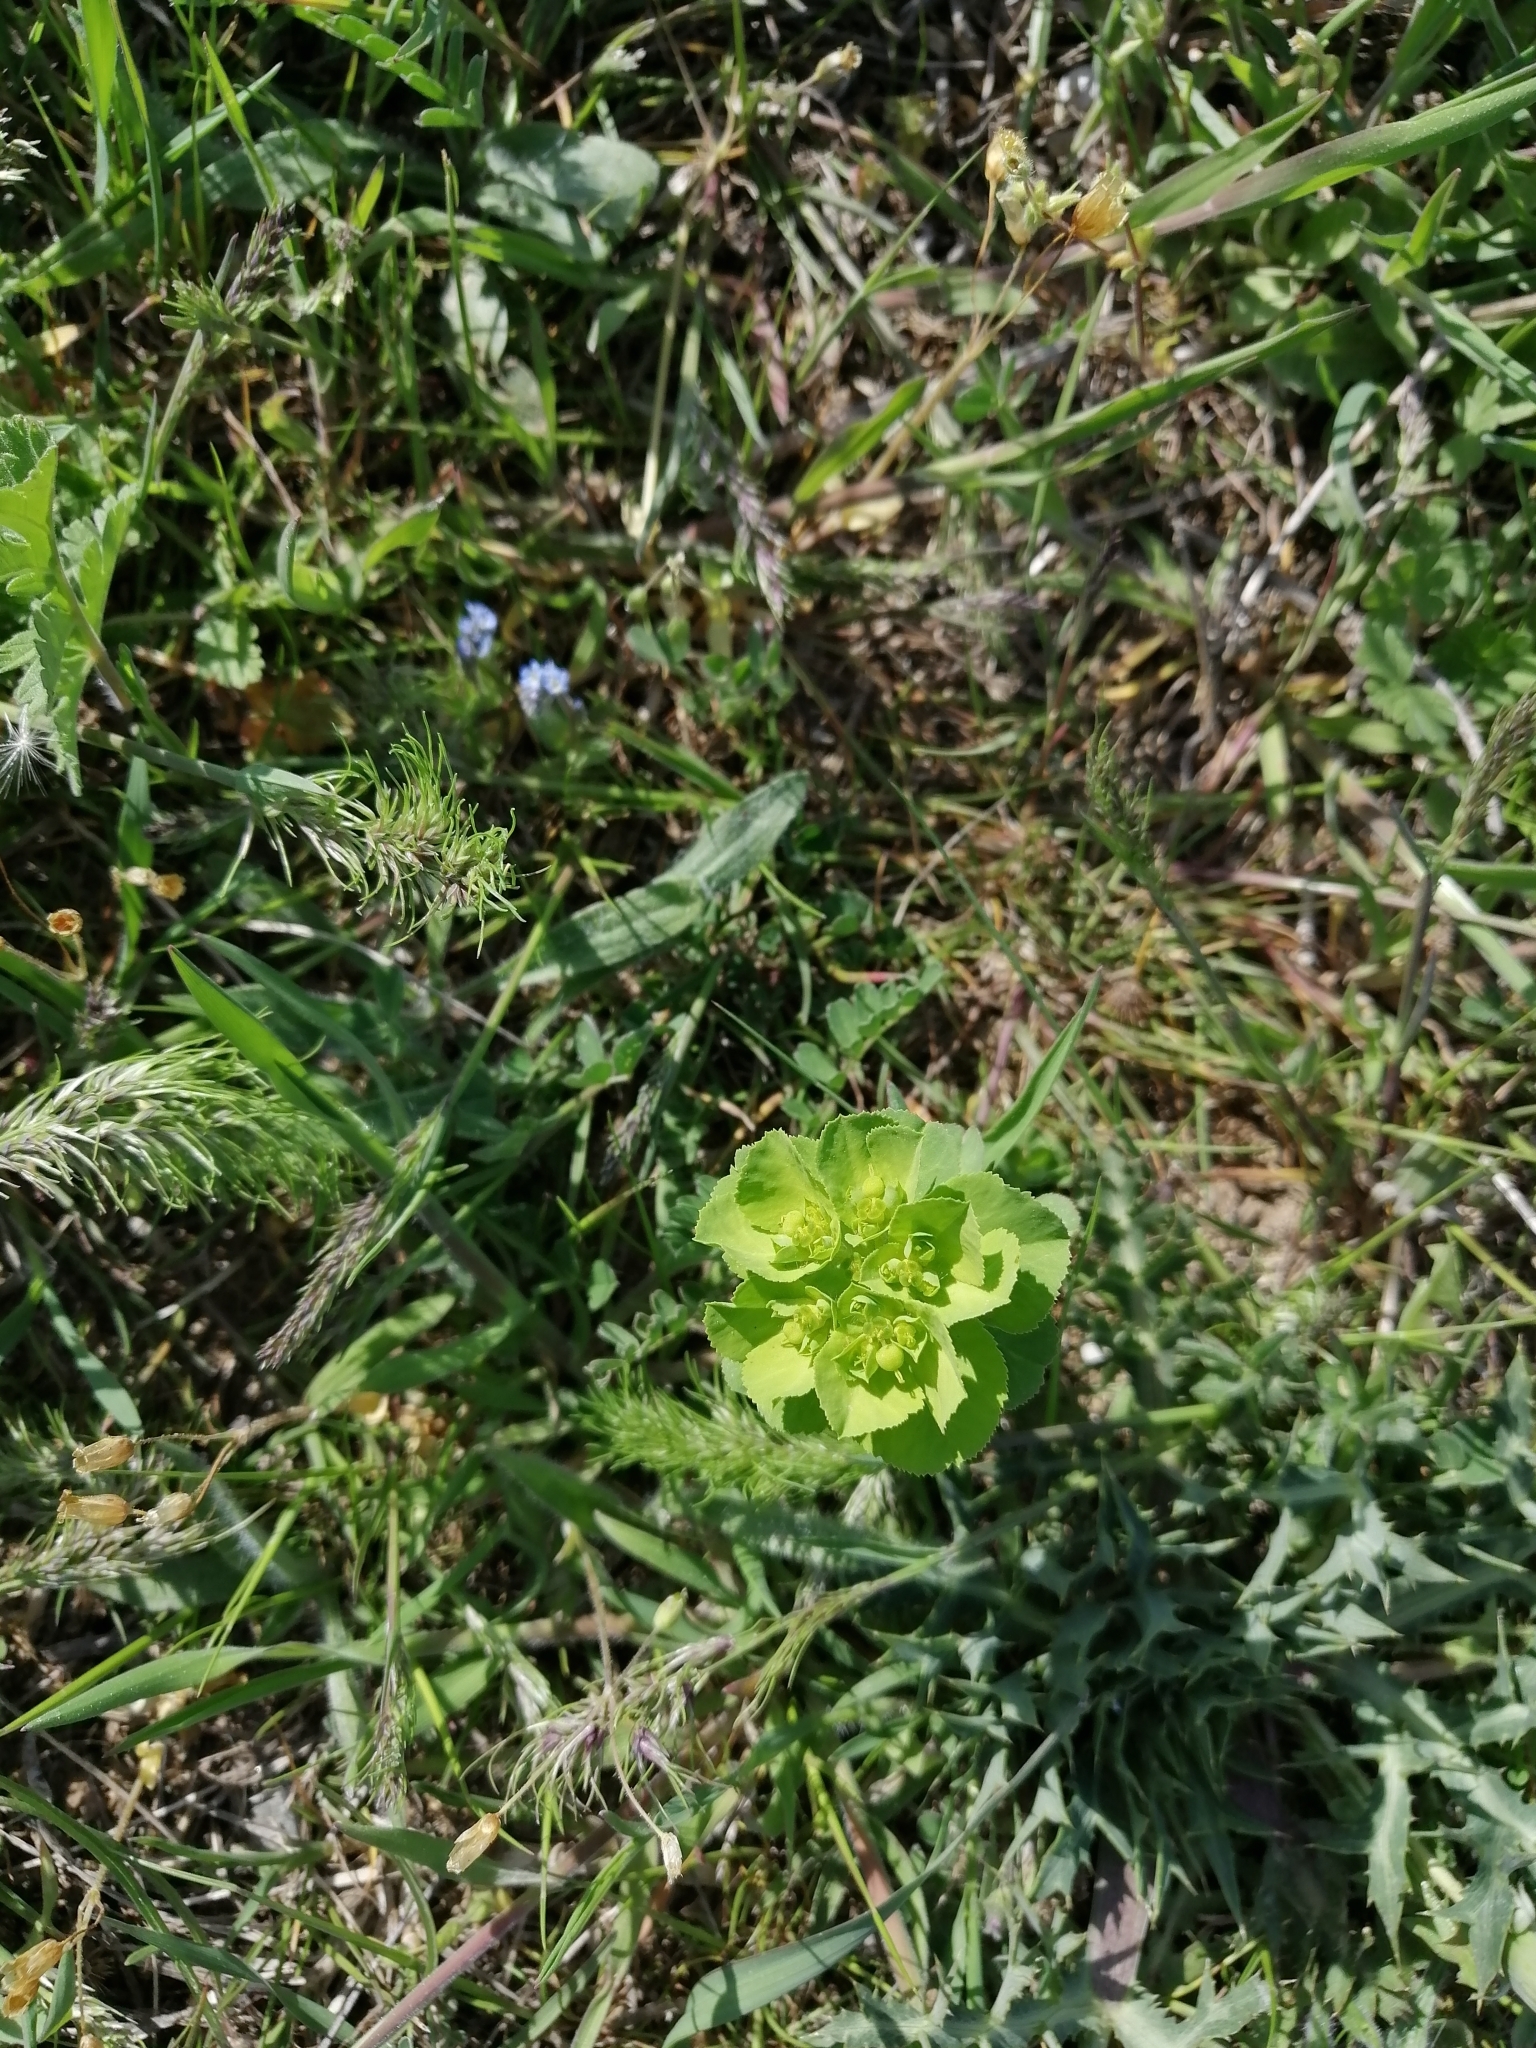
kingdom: Plantae
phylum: Tracheophyta
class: Magnoliopsida
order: Malpighiales
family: Euphorbiaceae
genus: Euphorbia
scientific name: Euphorbia helioscopia
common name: Sun spurge
